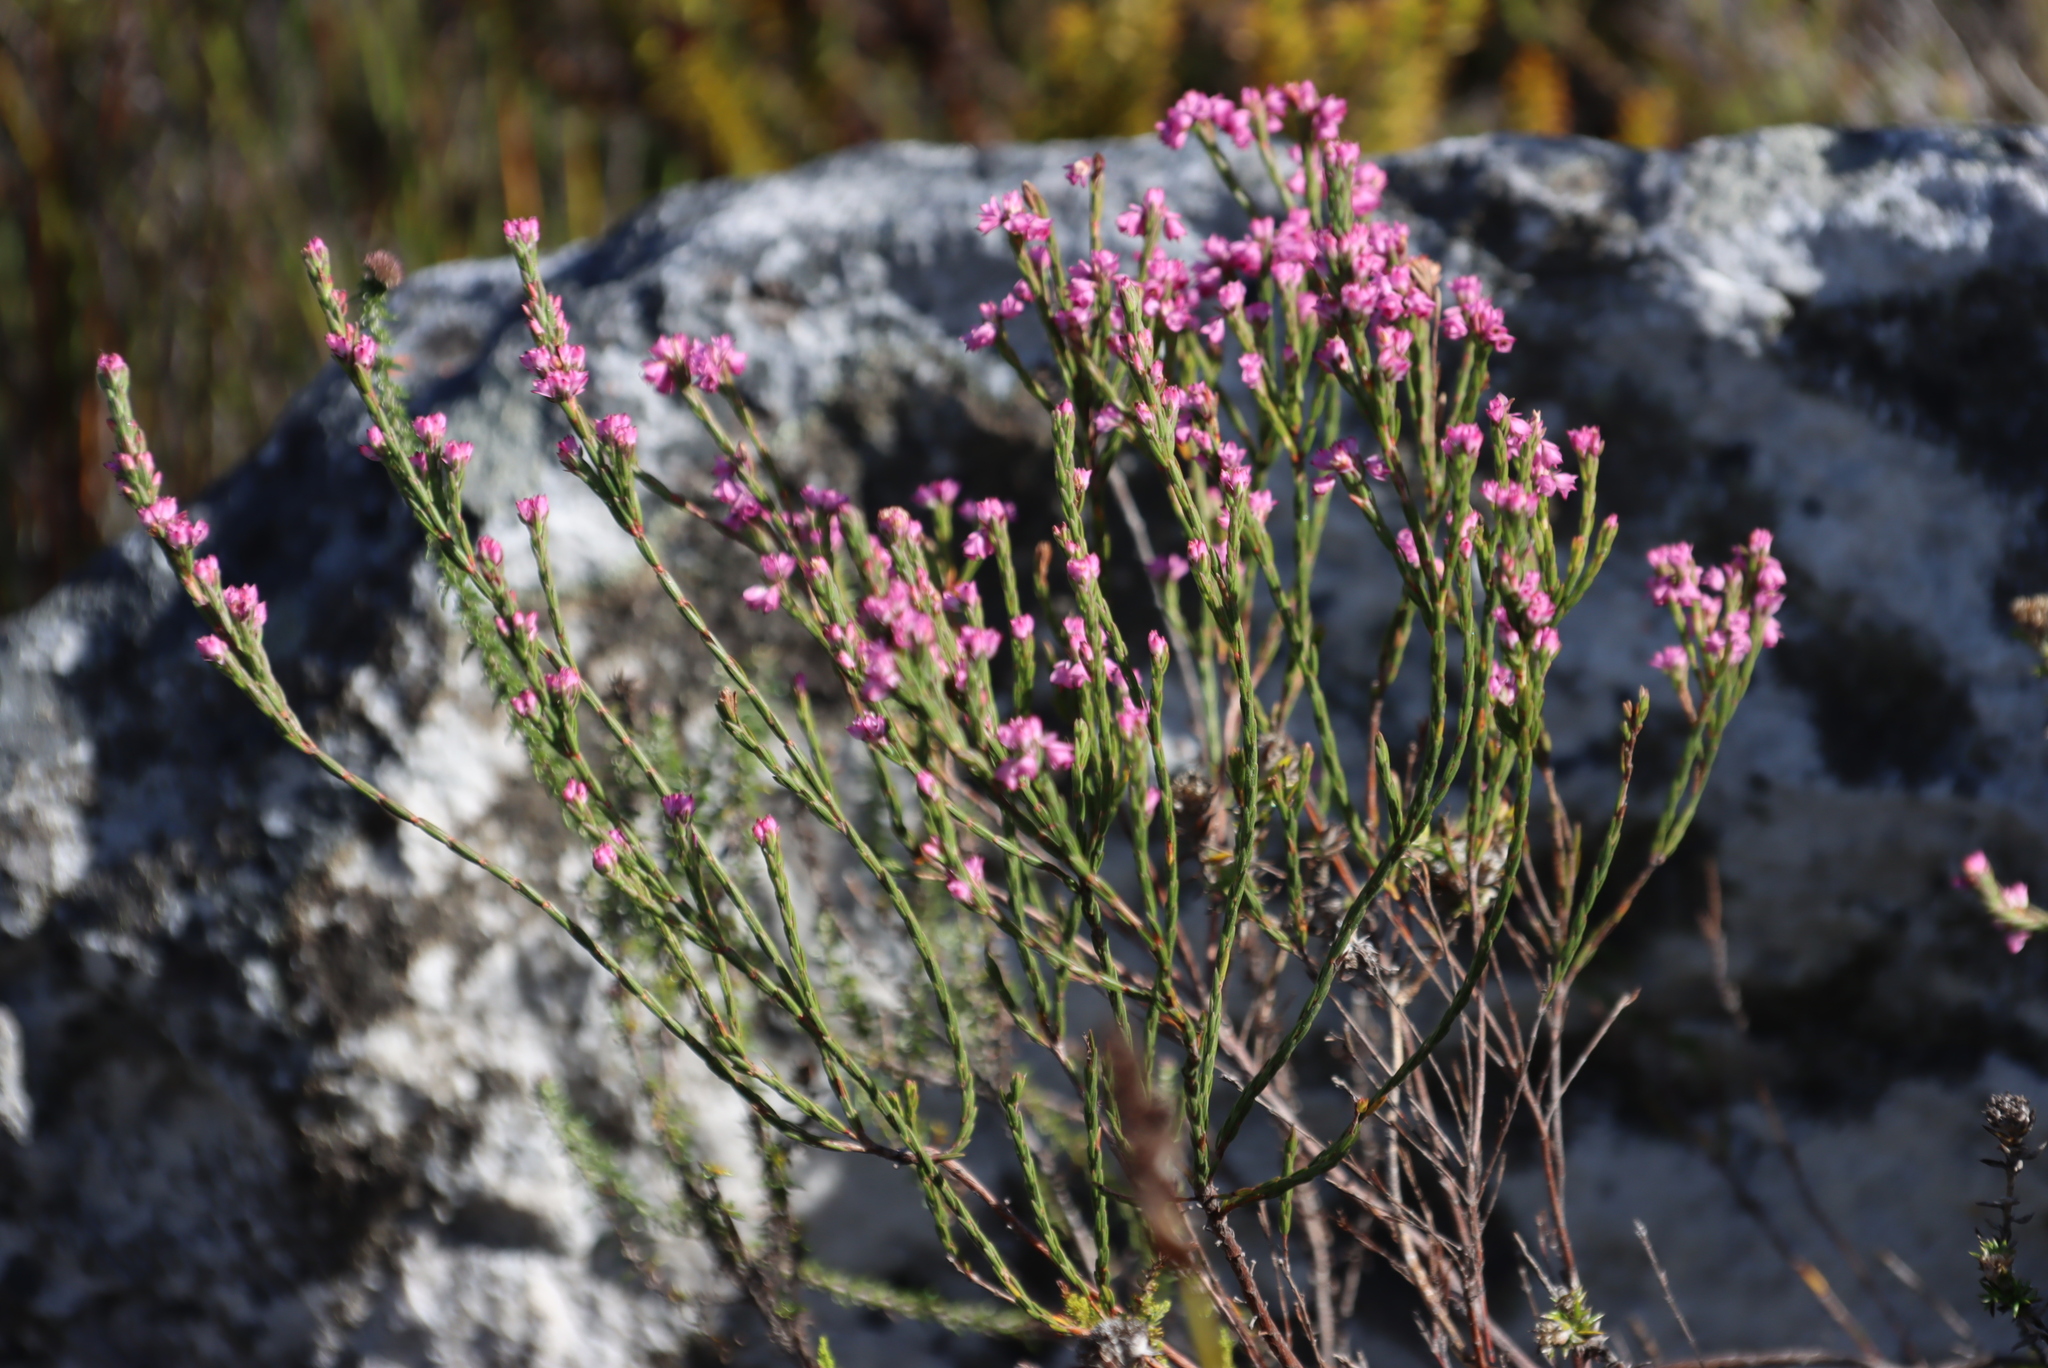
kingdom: Plantae
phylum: Tracheophyta
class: Magnoliopsida
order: Ericales
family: Ericaceae
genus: Erica
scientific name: Erica corifolia
